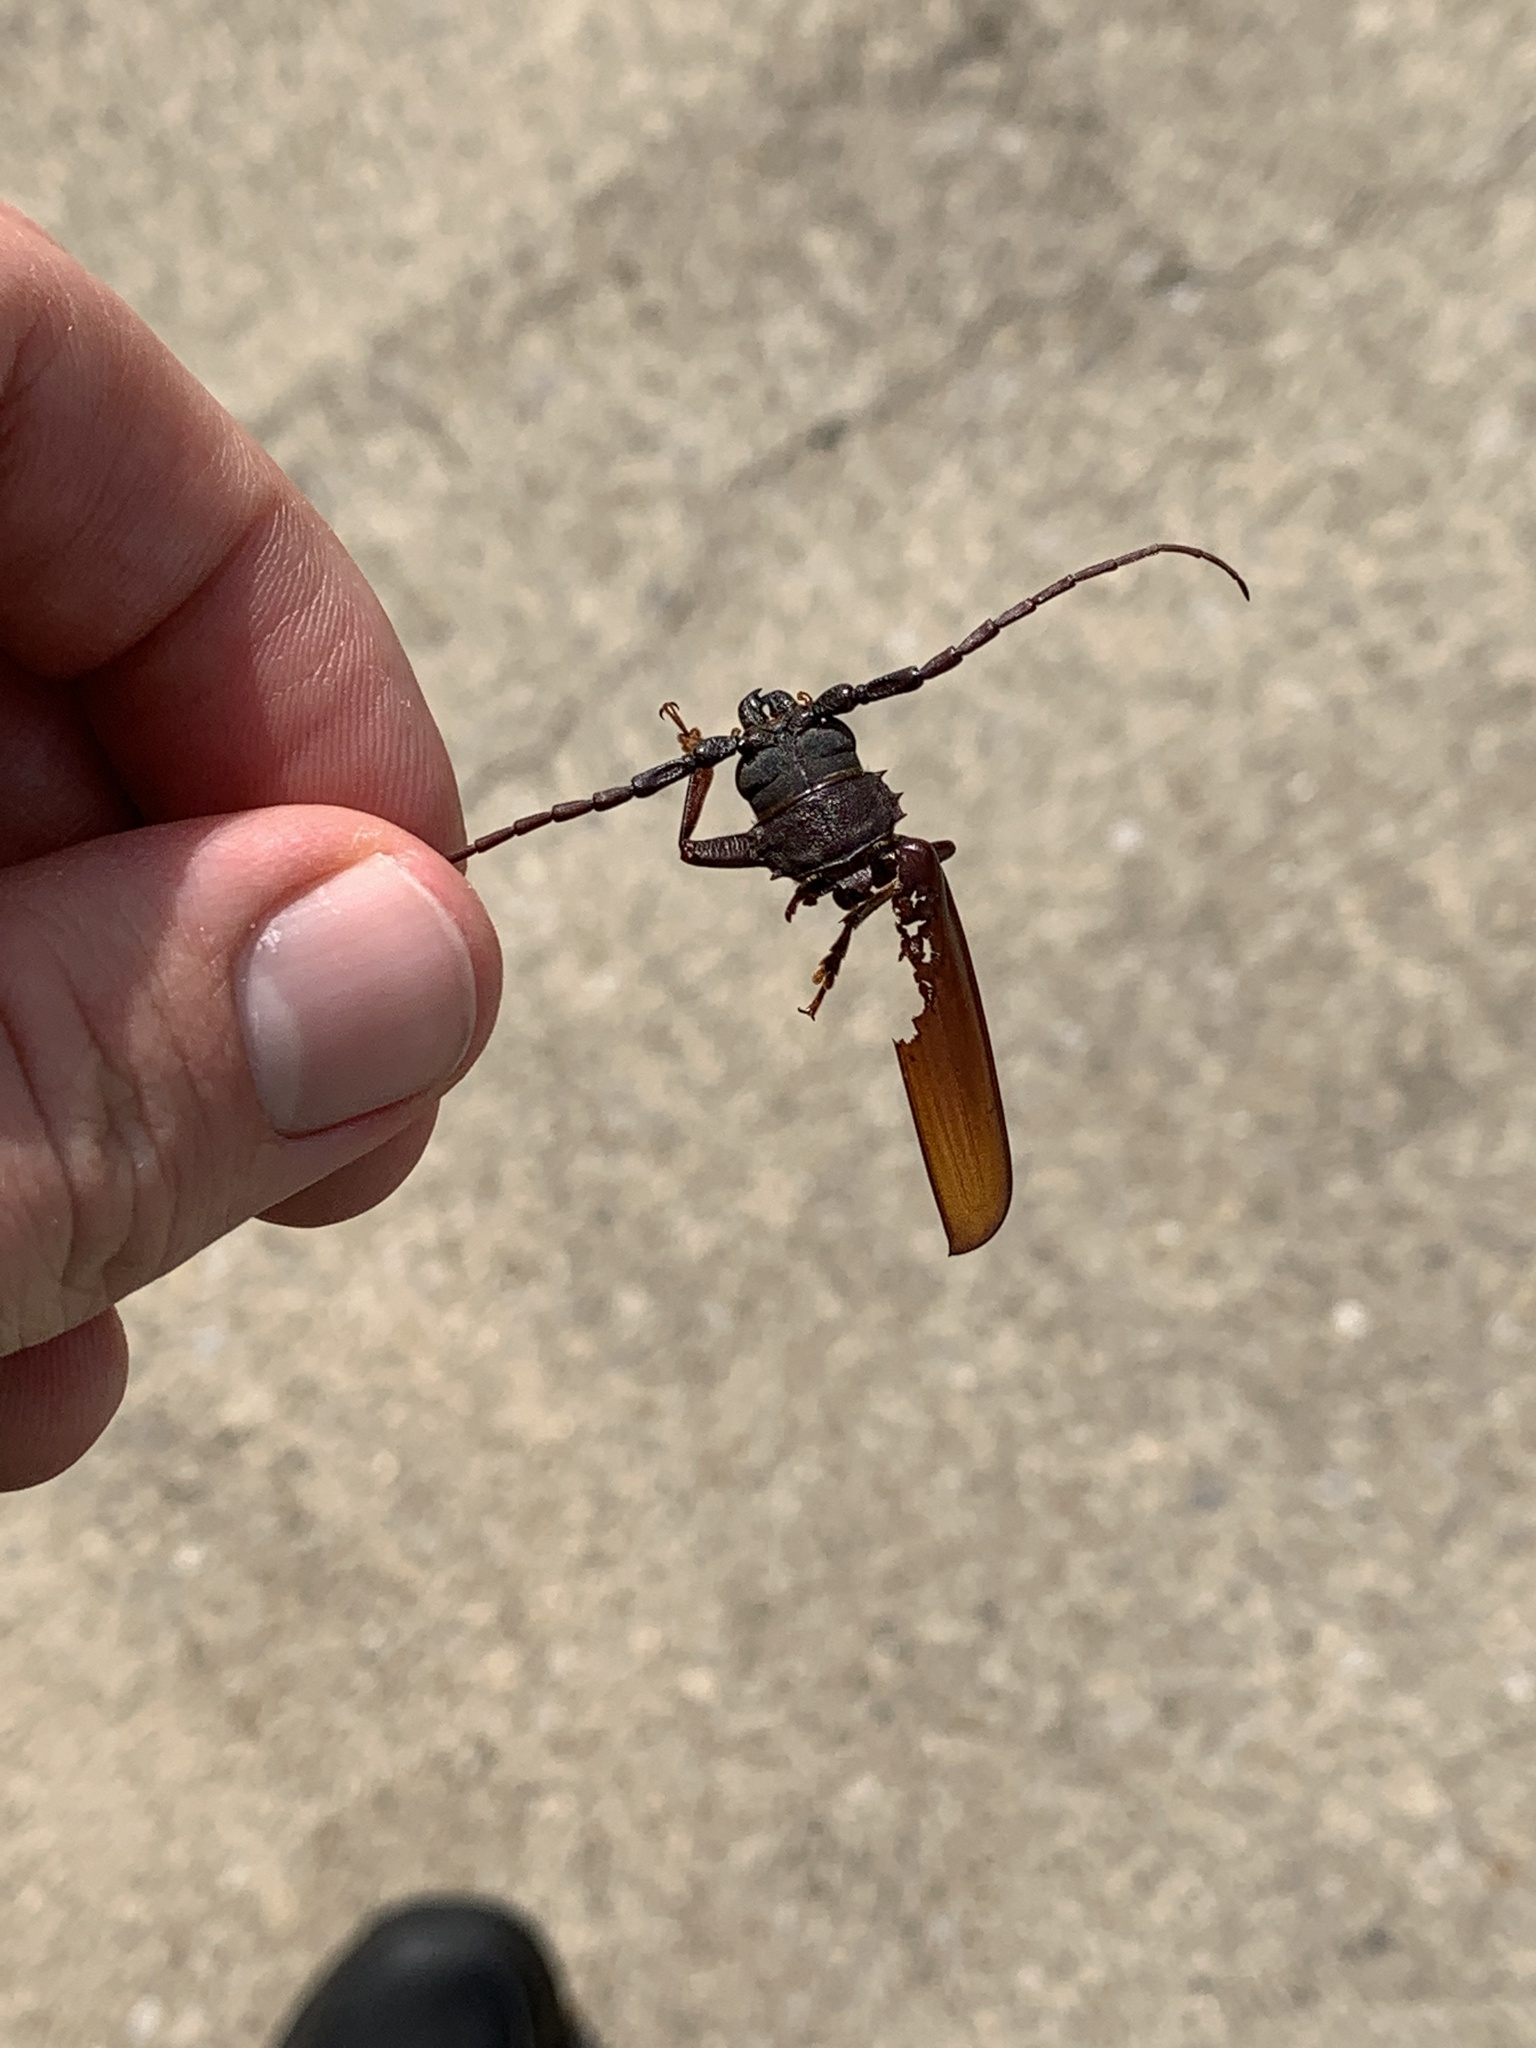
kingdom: Animalia
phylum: Arthropoda
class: Insecta
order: Coleoptera
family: Cerambycidae
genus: Orthosoma
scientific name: Orthosoma brunneum
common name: Brown prionid beetle
